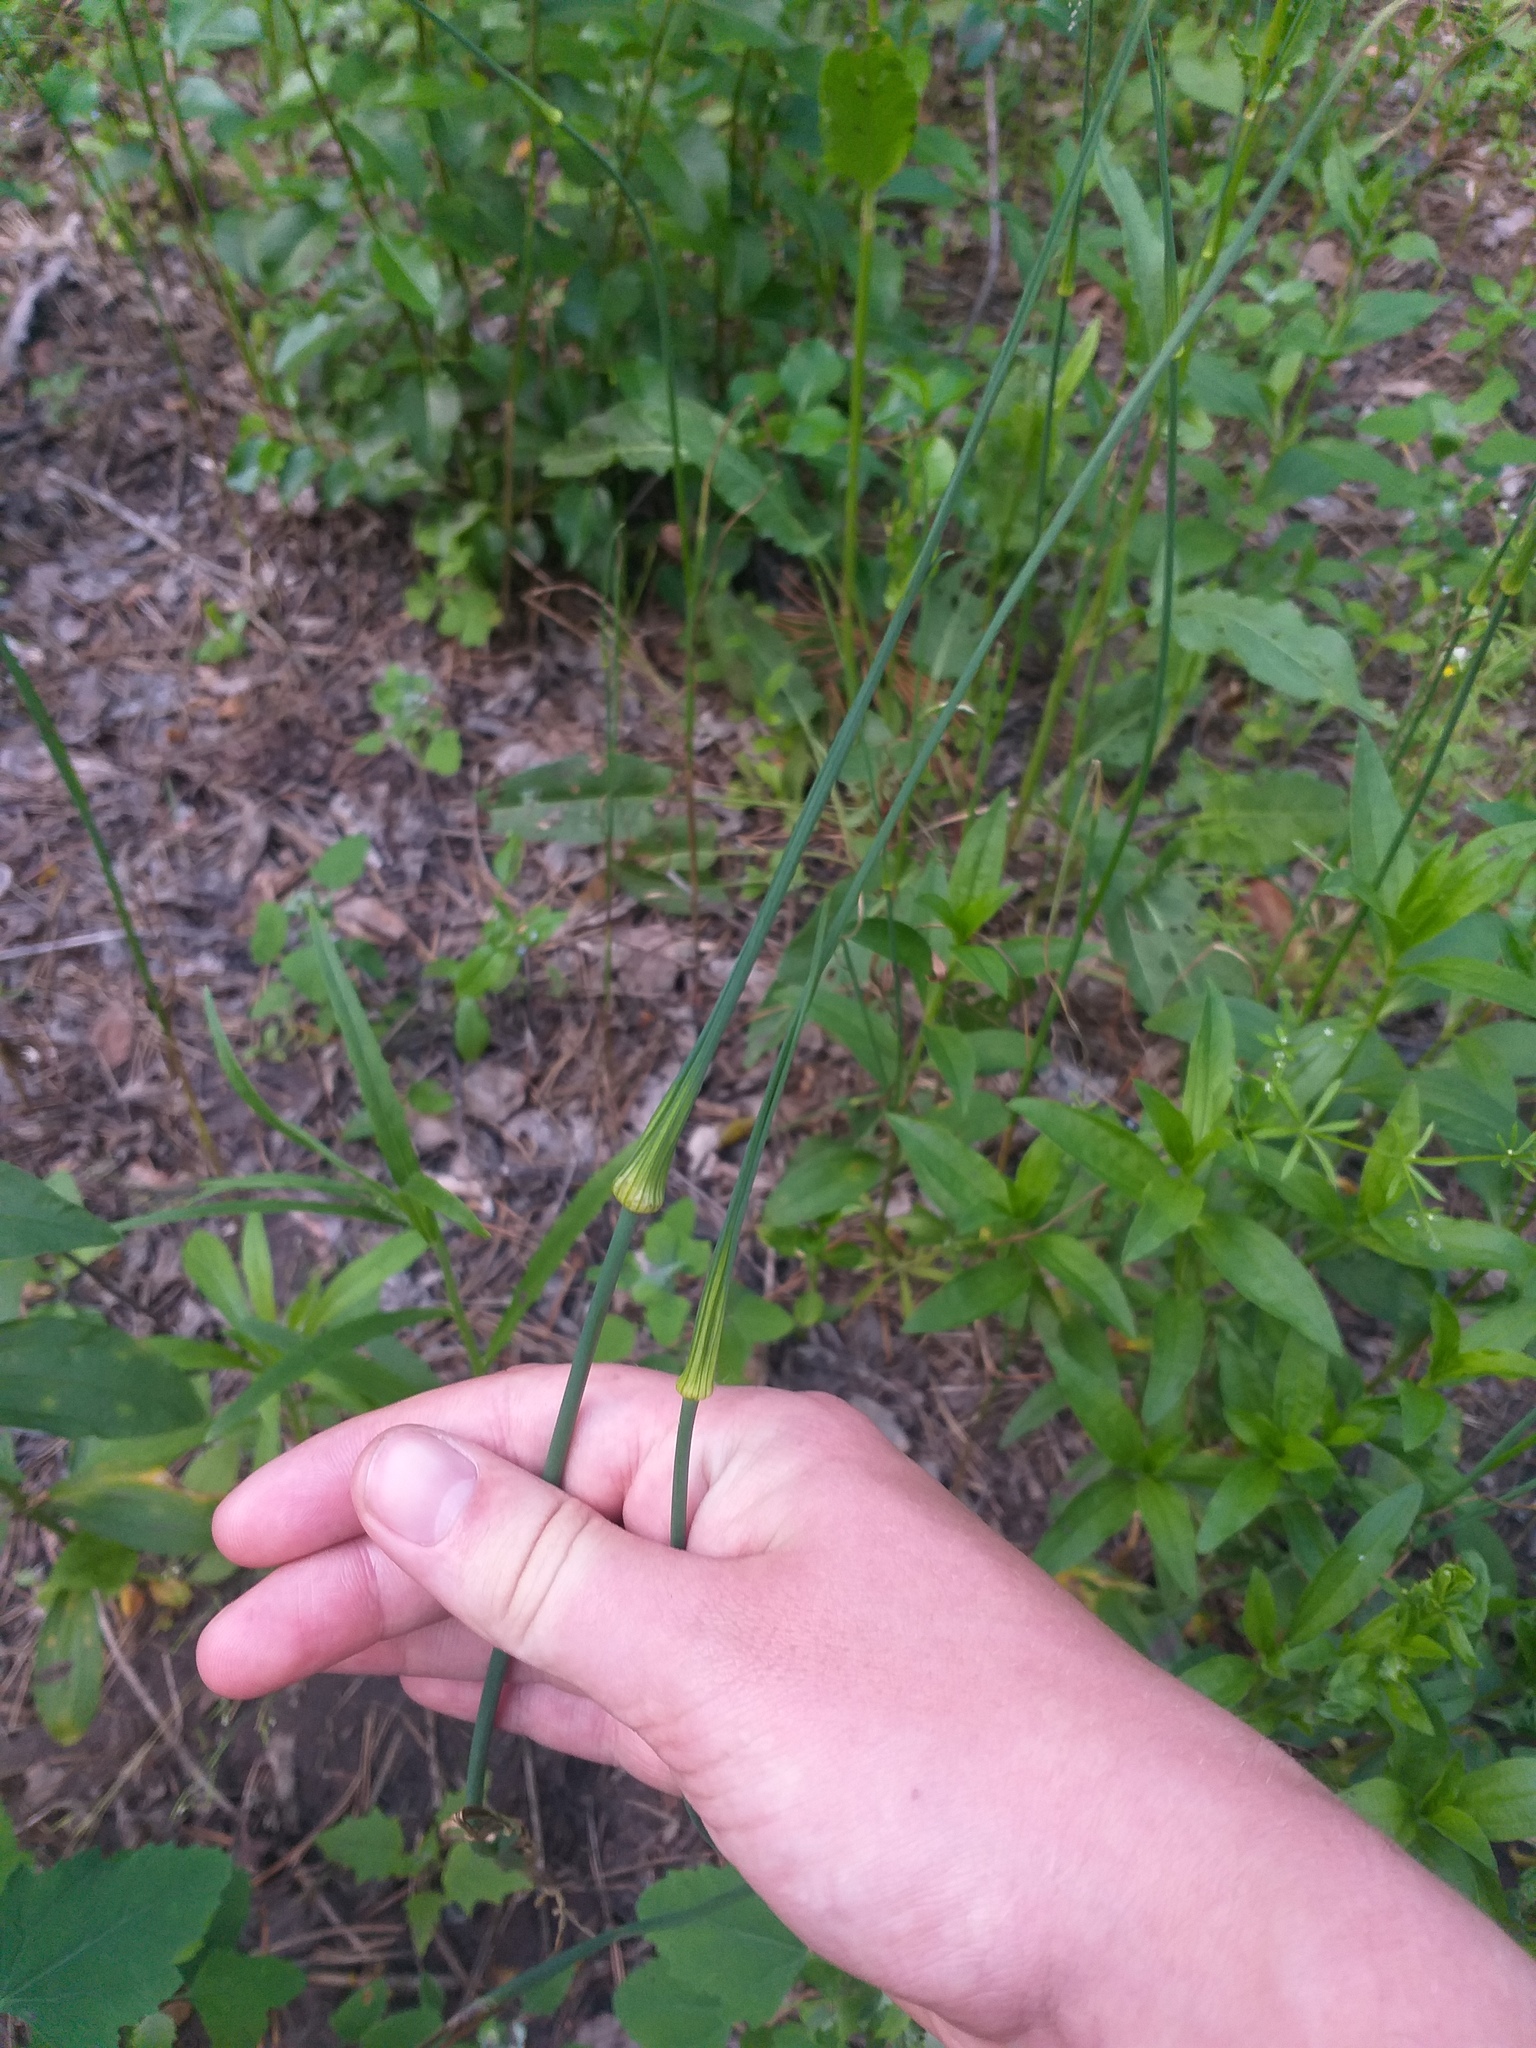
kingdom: Plantae
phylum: Tracheophyta
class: Liliopsida
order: Asparagales
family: Amaryllidaceae
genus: Allium
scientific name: Allium oleraceum
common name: Field garlic
